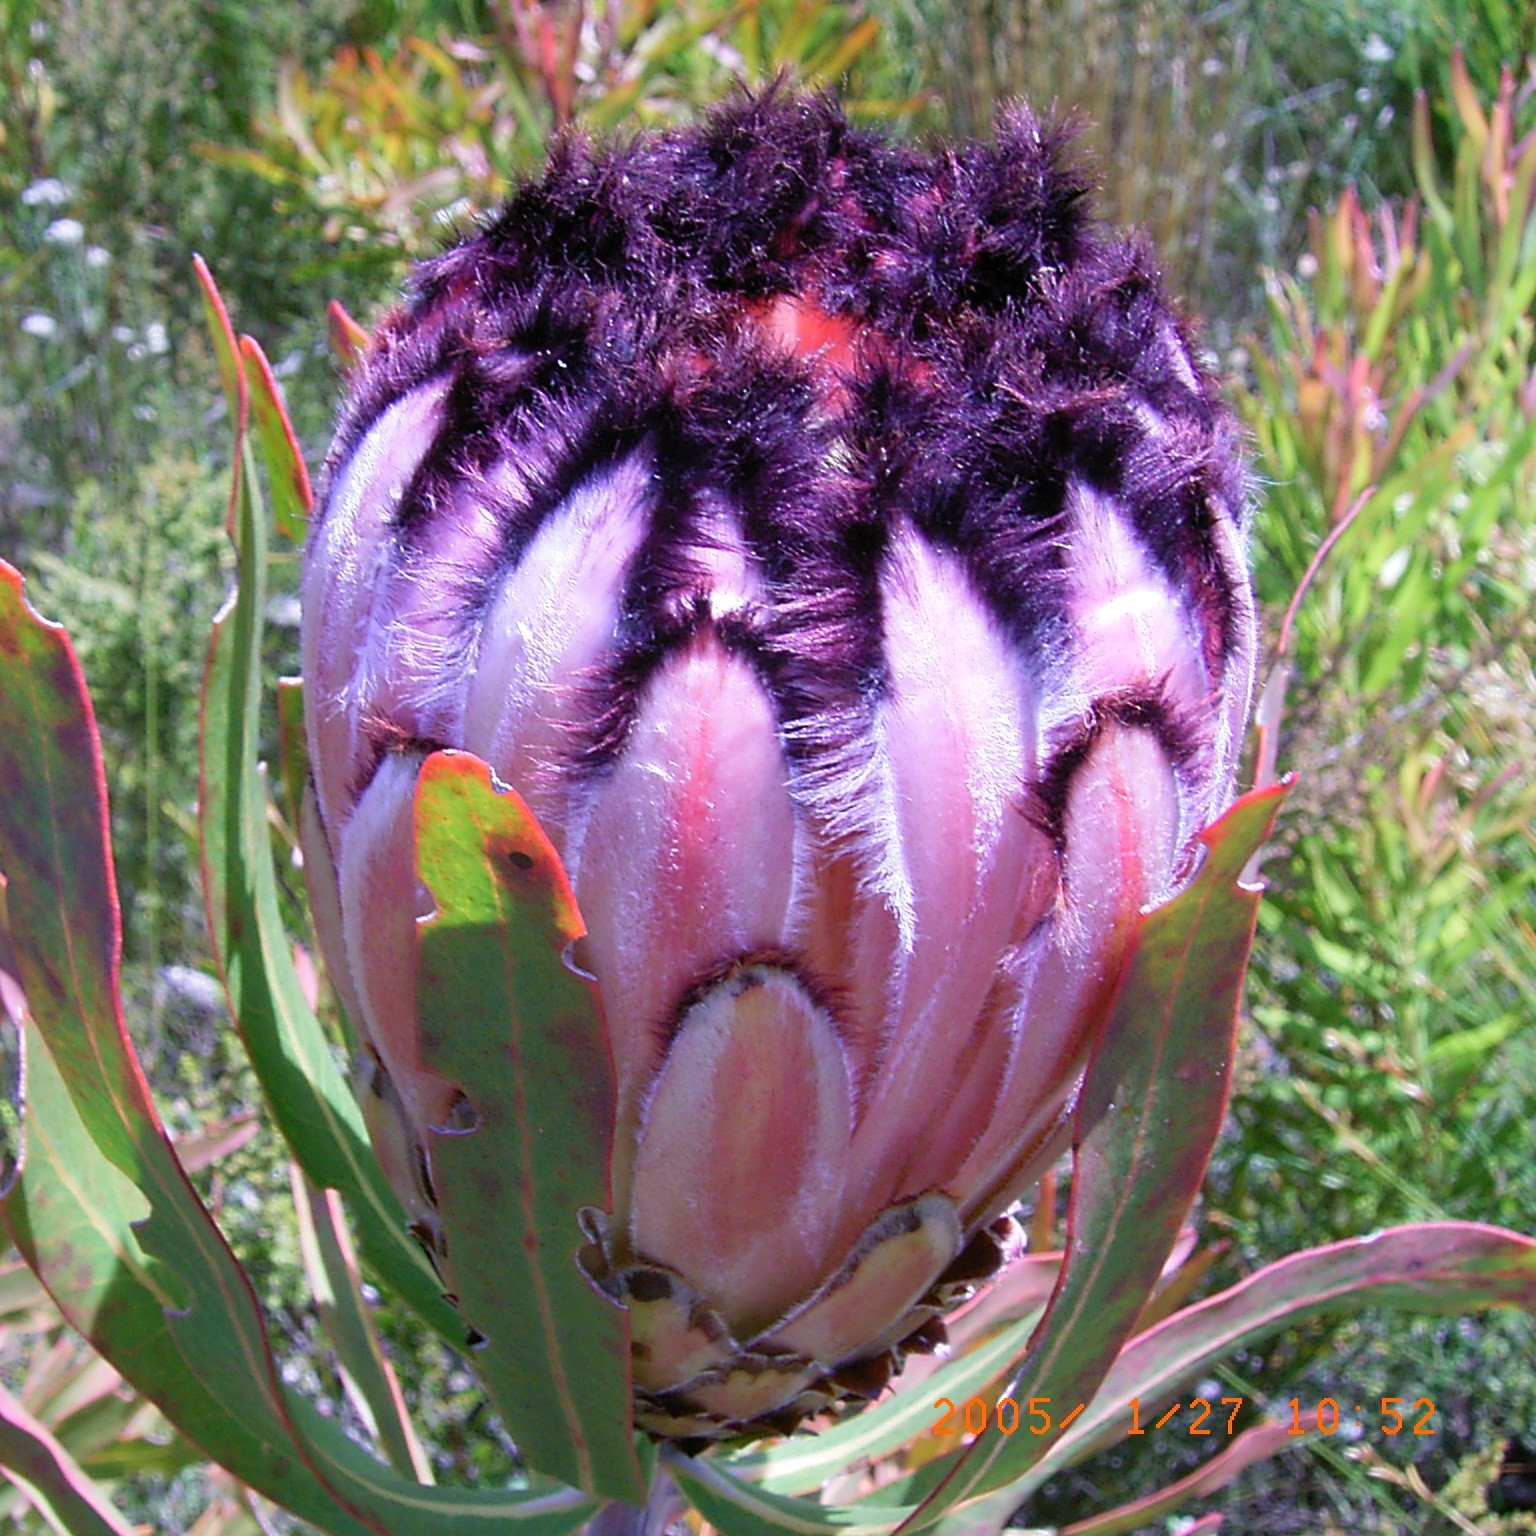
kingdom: Plantae
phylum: Tracheophyta
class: Magnoliopsida
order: Proteales
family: Proteaceae
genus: Protea
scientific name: Protea neriifolia
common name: Blue sugarbush
